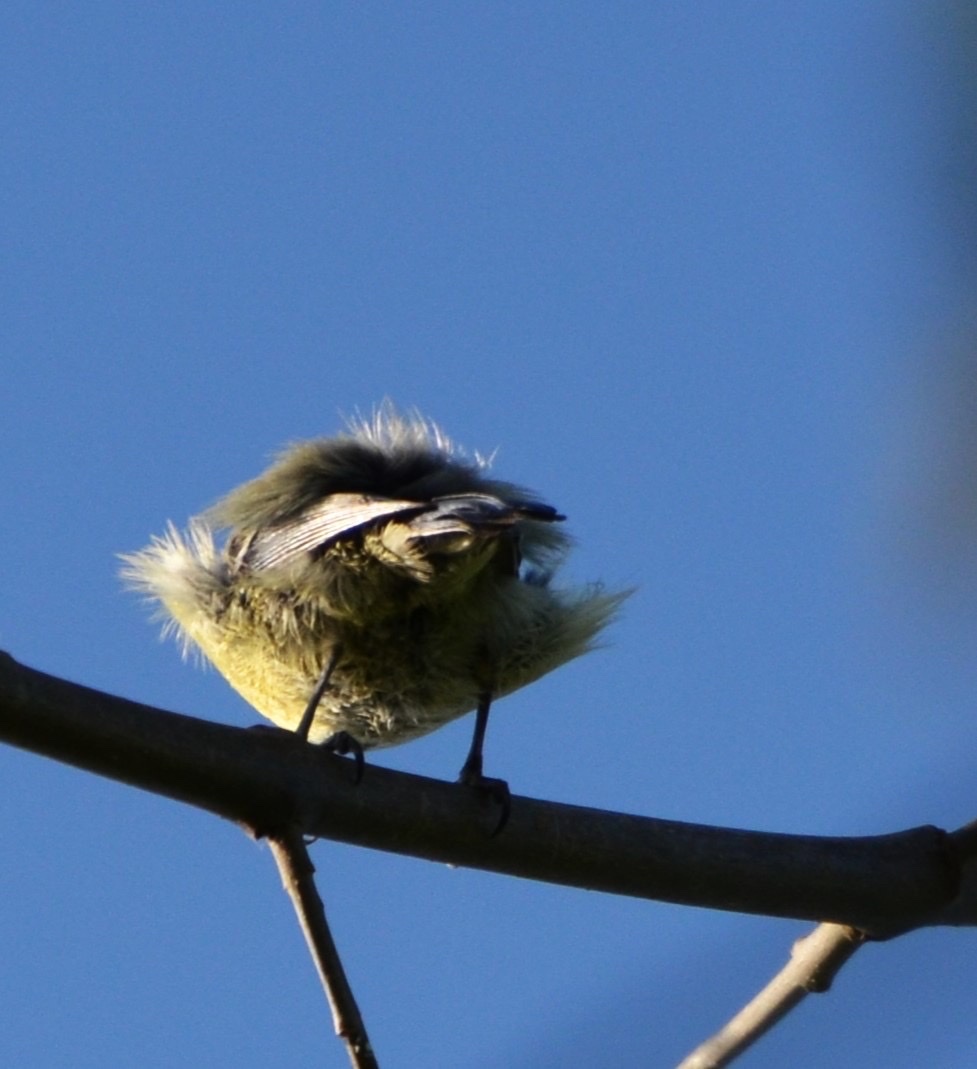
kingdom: Animalia
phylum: Chordata
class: Aves
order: Passeriformes
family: Paridae
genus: Cyanistes
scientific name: Cyanistes caeruleus
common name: Eurasian blue tit
